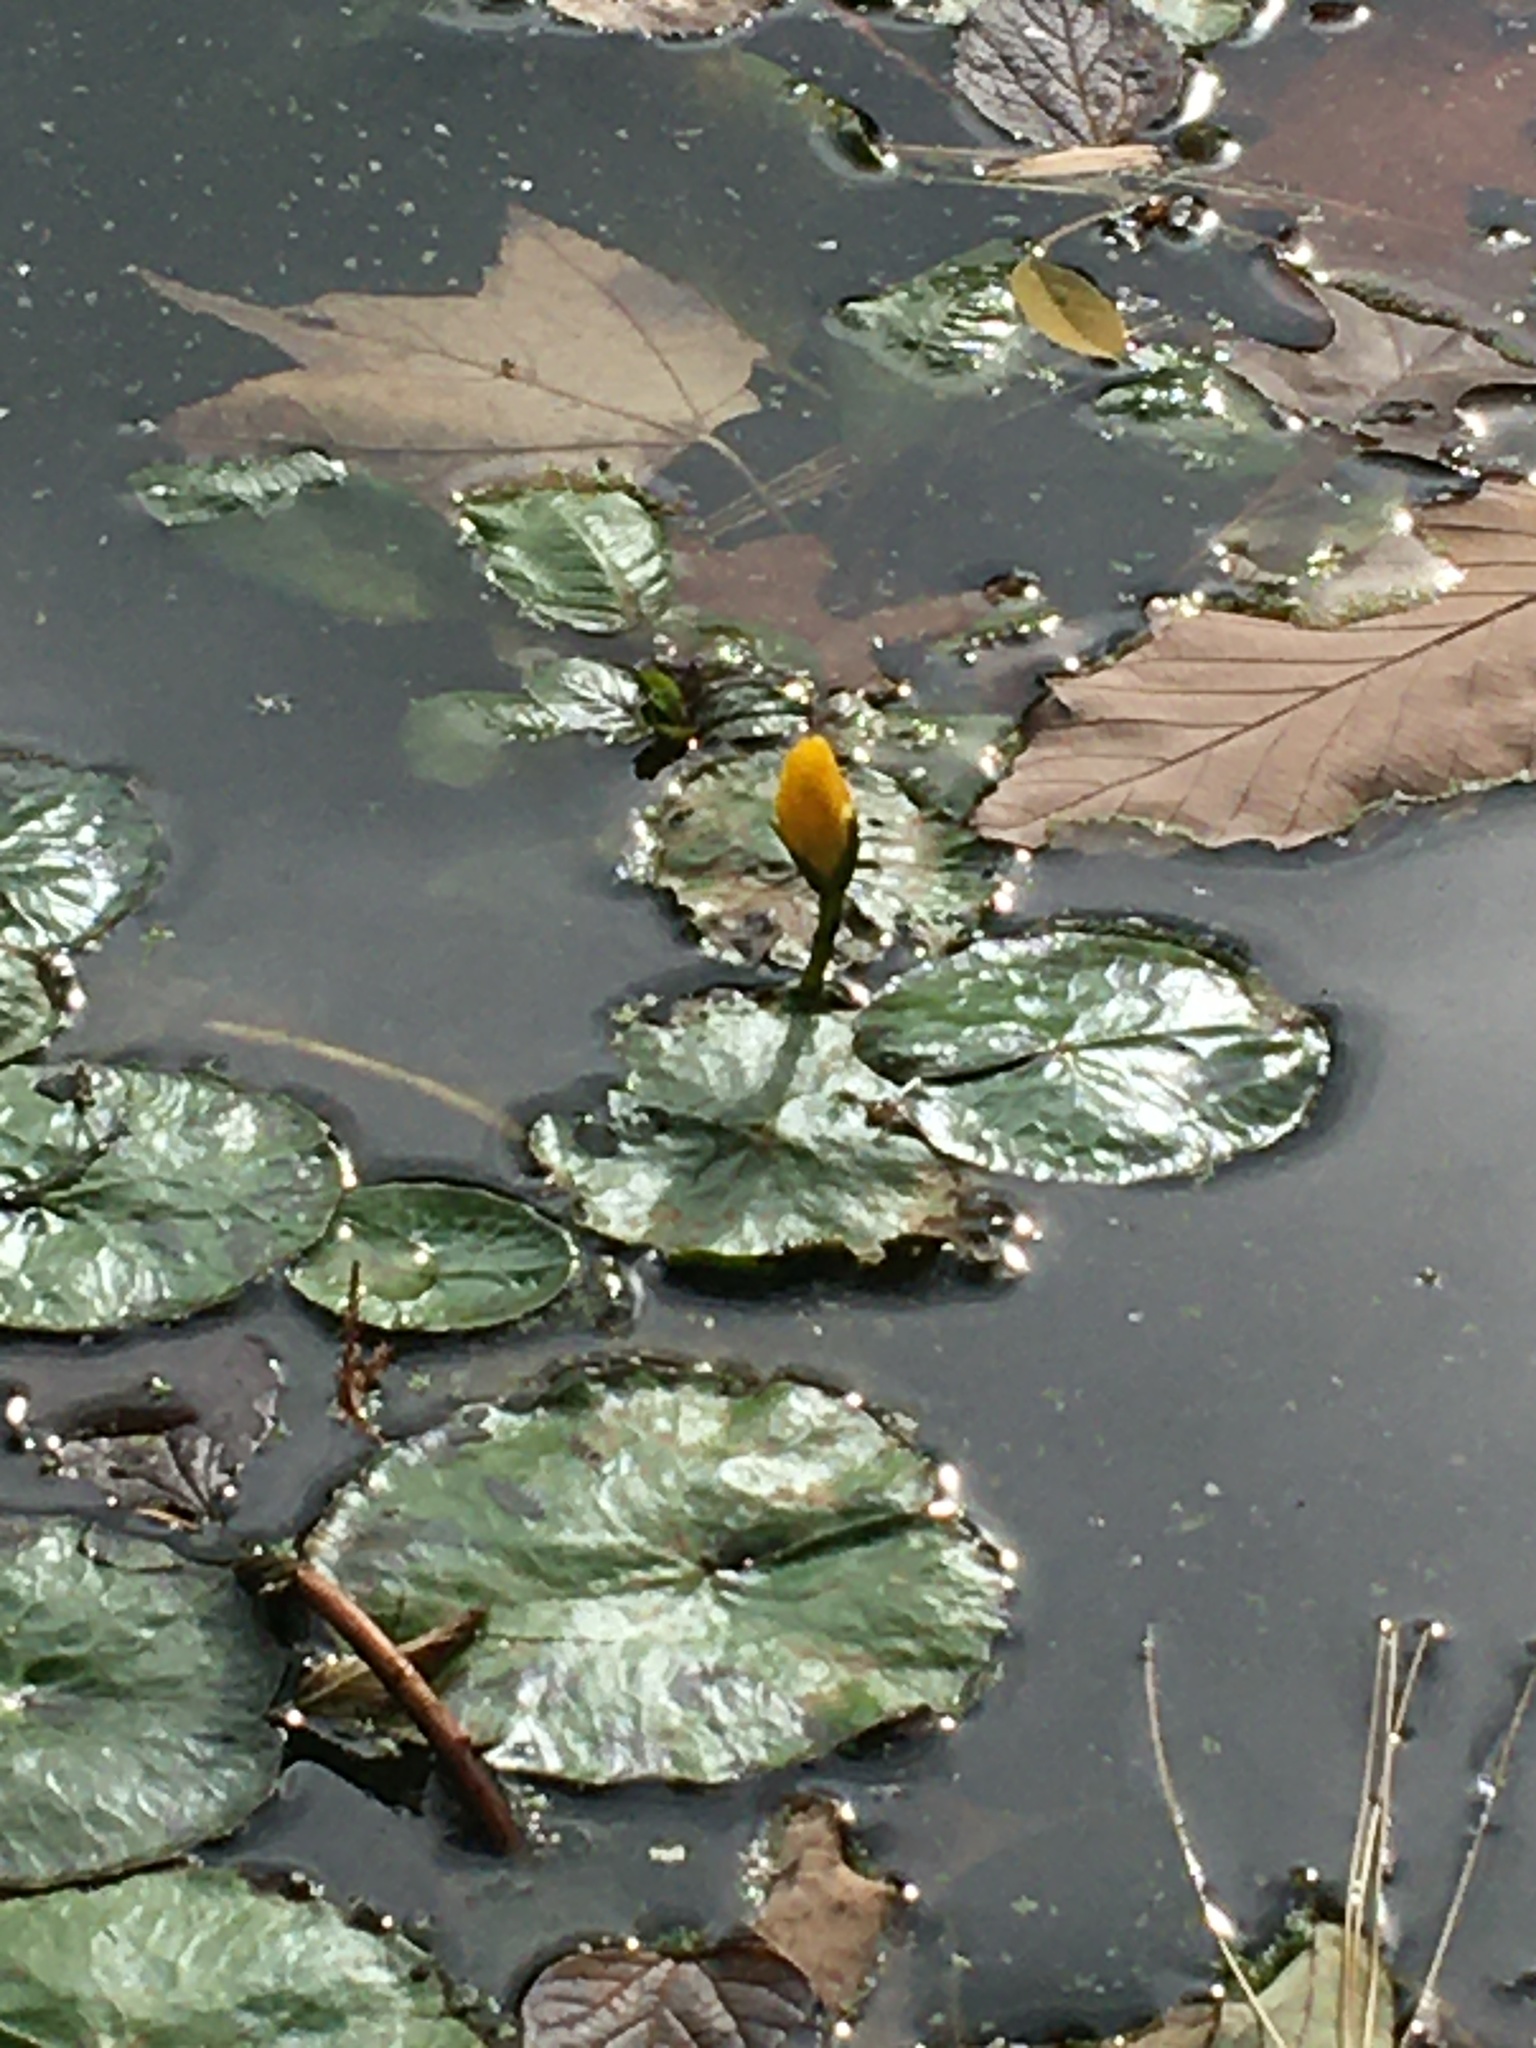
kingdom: Plantae
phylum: Tracheophyta
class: Magnoliopsida
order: Asterales
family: Menyanthaceae
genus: Nymphoides
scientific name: Nymphoides peltata
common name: Fringed water-lily
